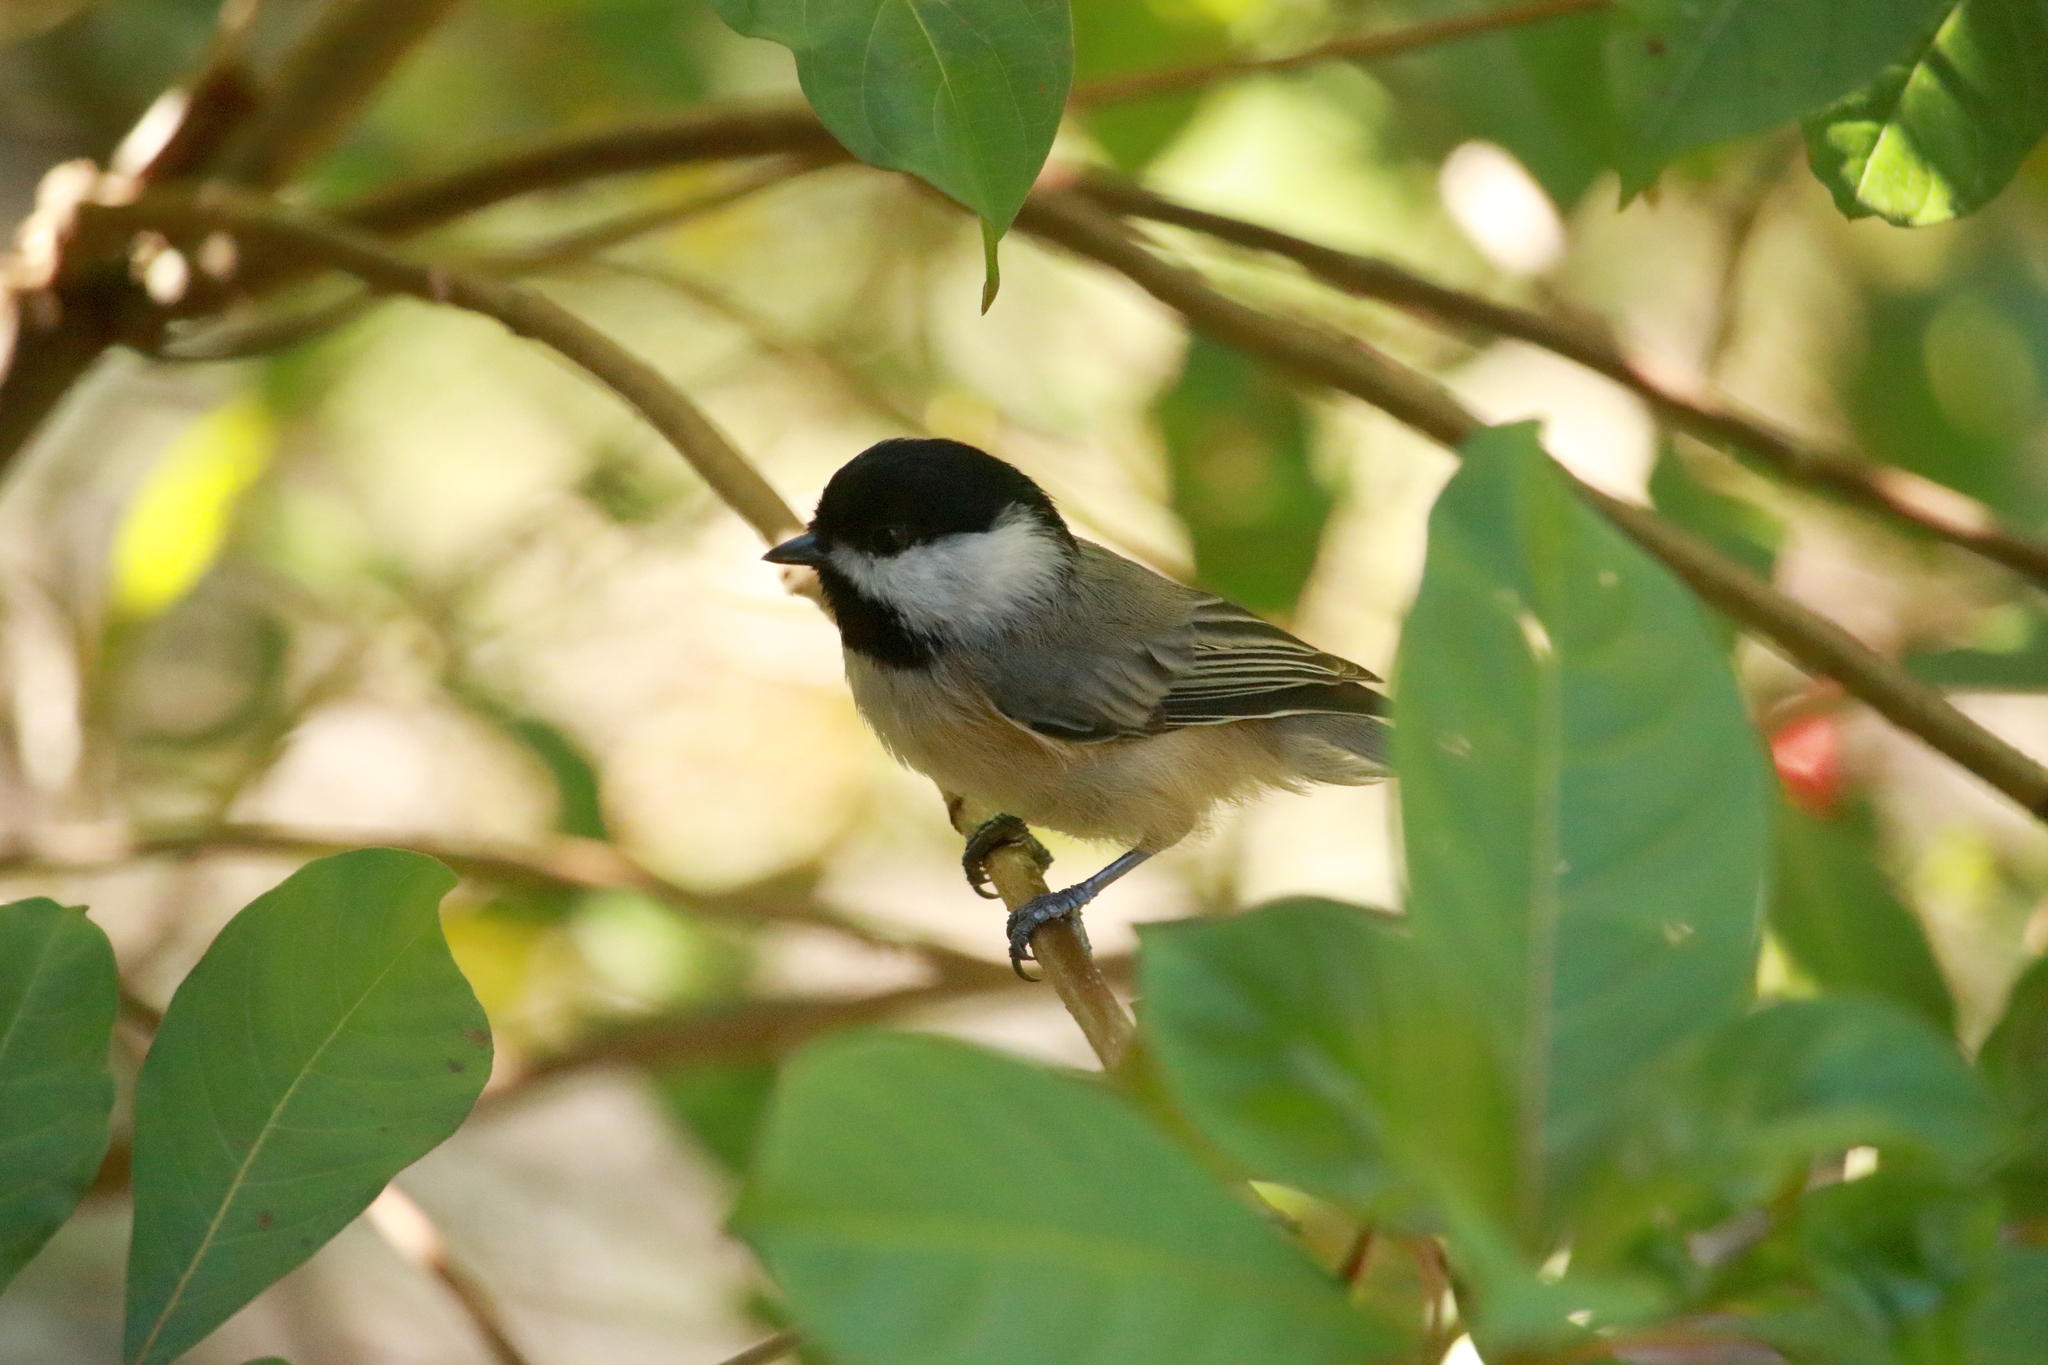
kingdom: Animalia
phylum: Chordata
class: Aves
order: Passeriformes
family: Paridae
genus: Poecile
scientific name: Poecile carolinensis
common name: Carolina chickadee
